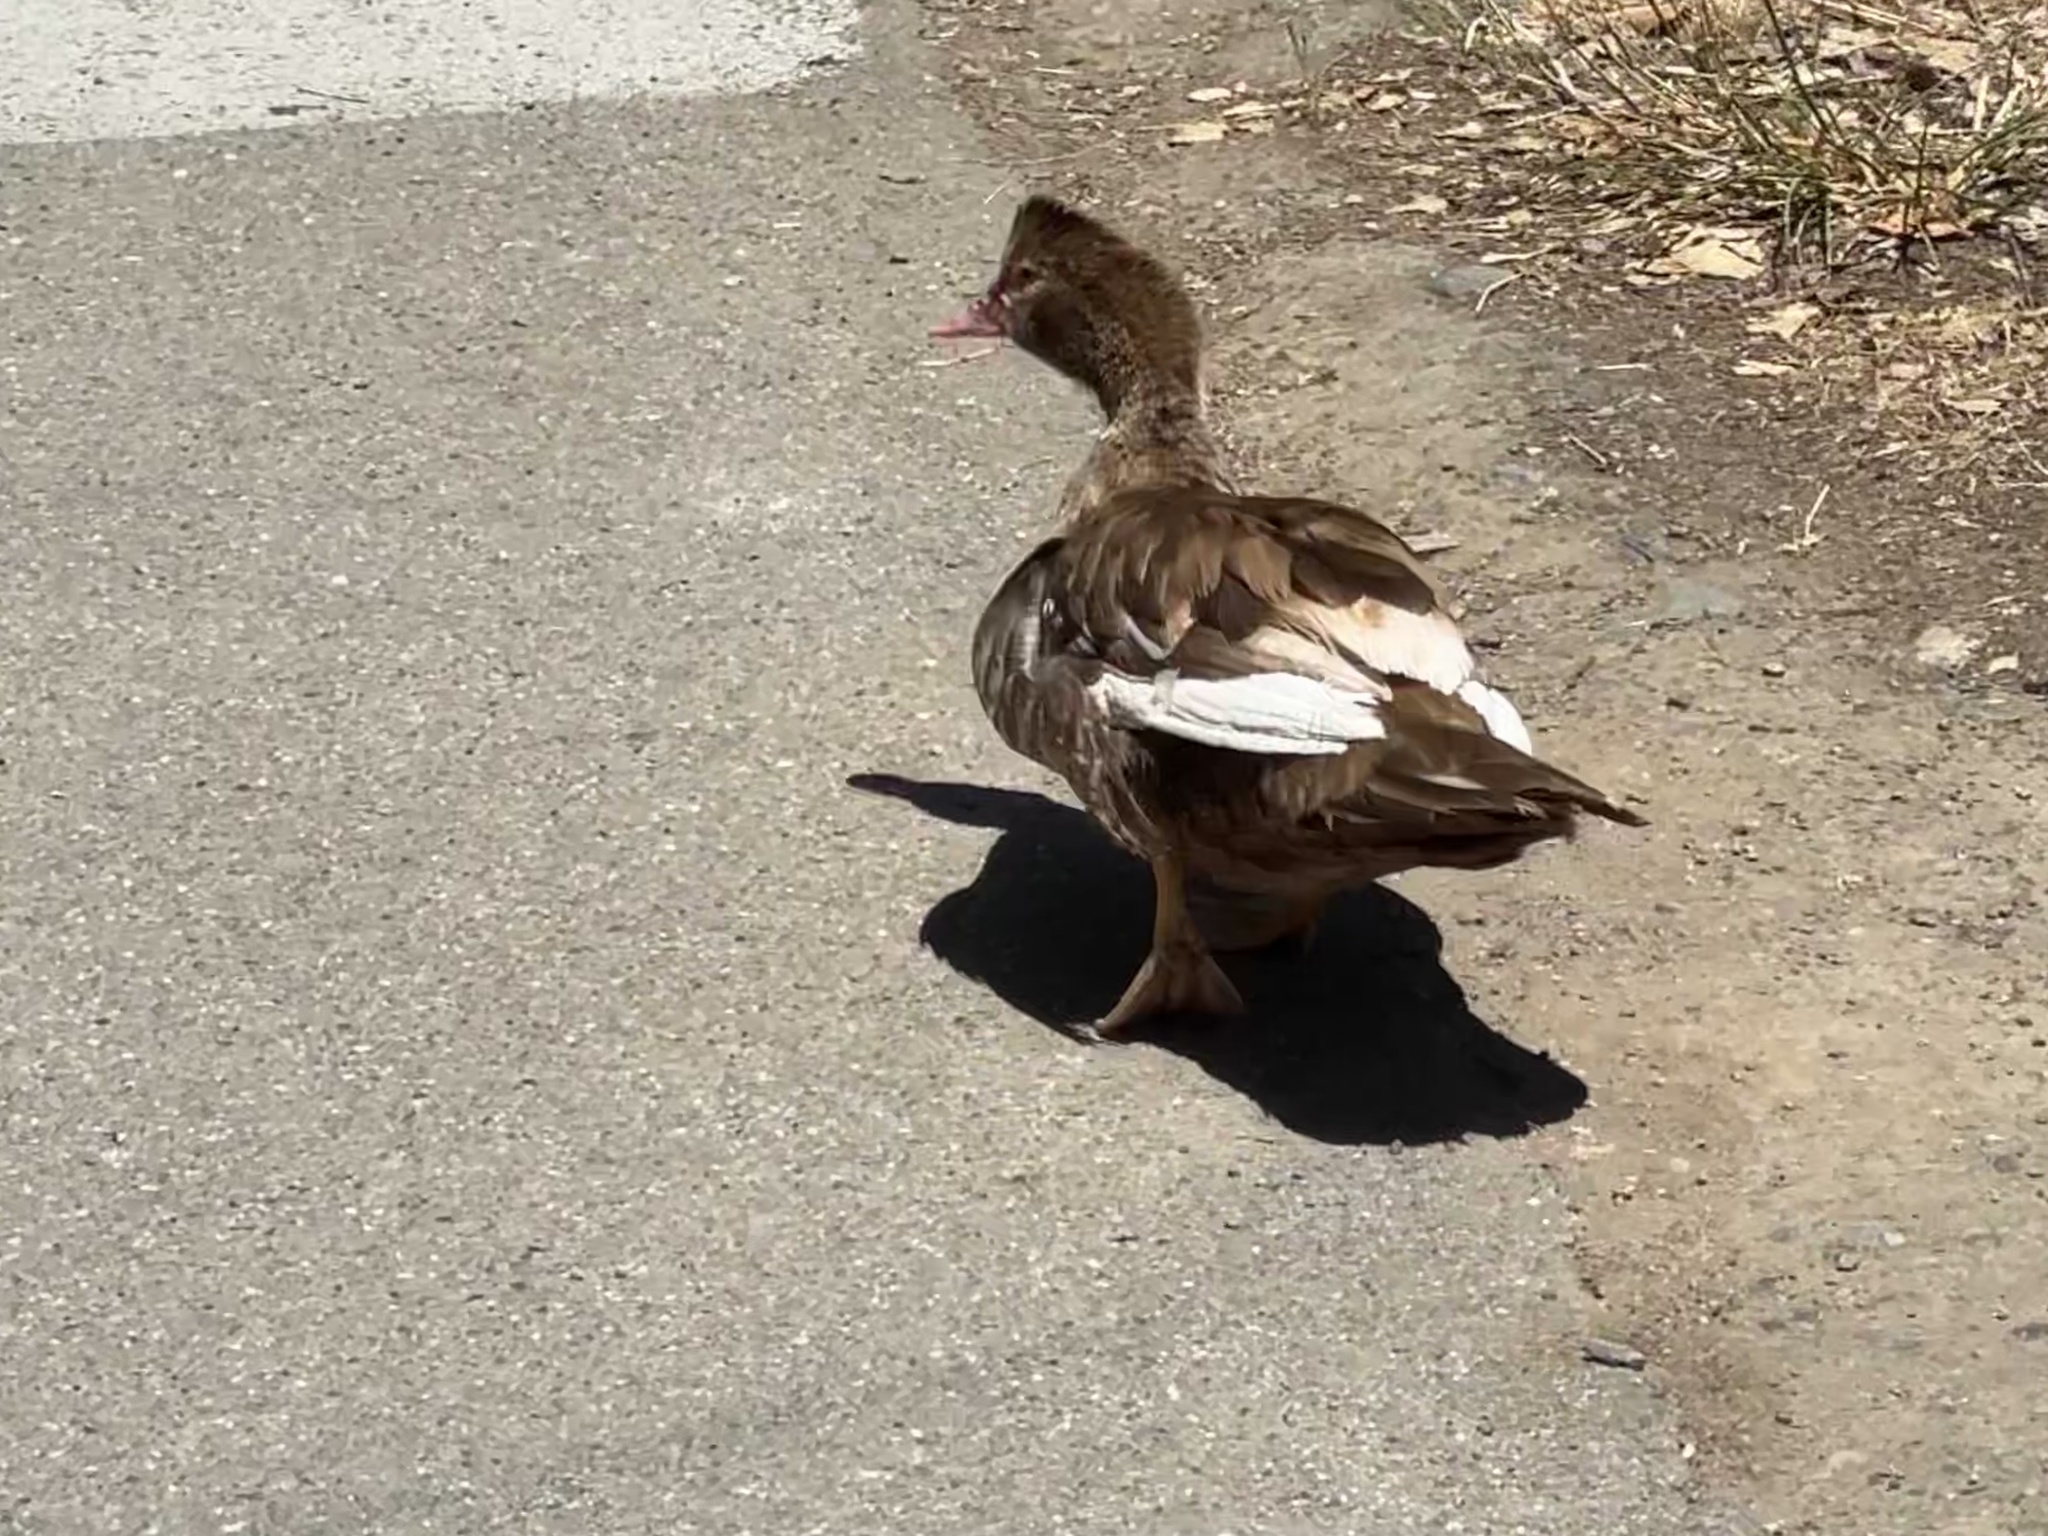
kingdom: Animalia
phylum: Chordata
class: Aves
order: Anseriformes
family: Anatidae
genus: Cairina
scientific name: Cairina moschata
